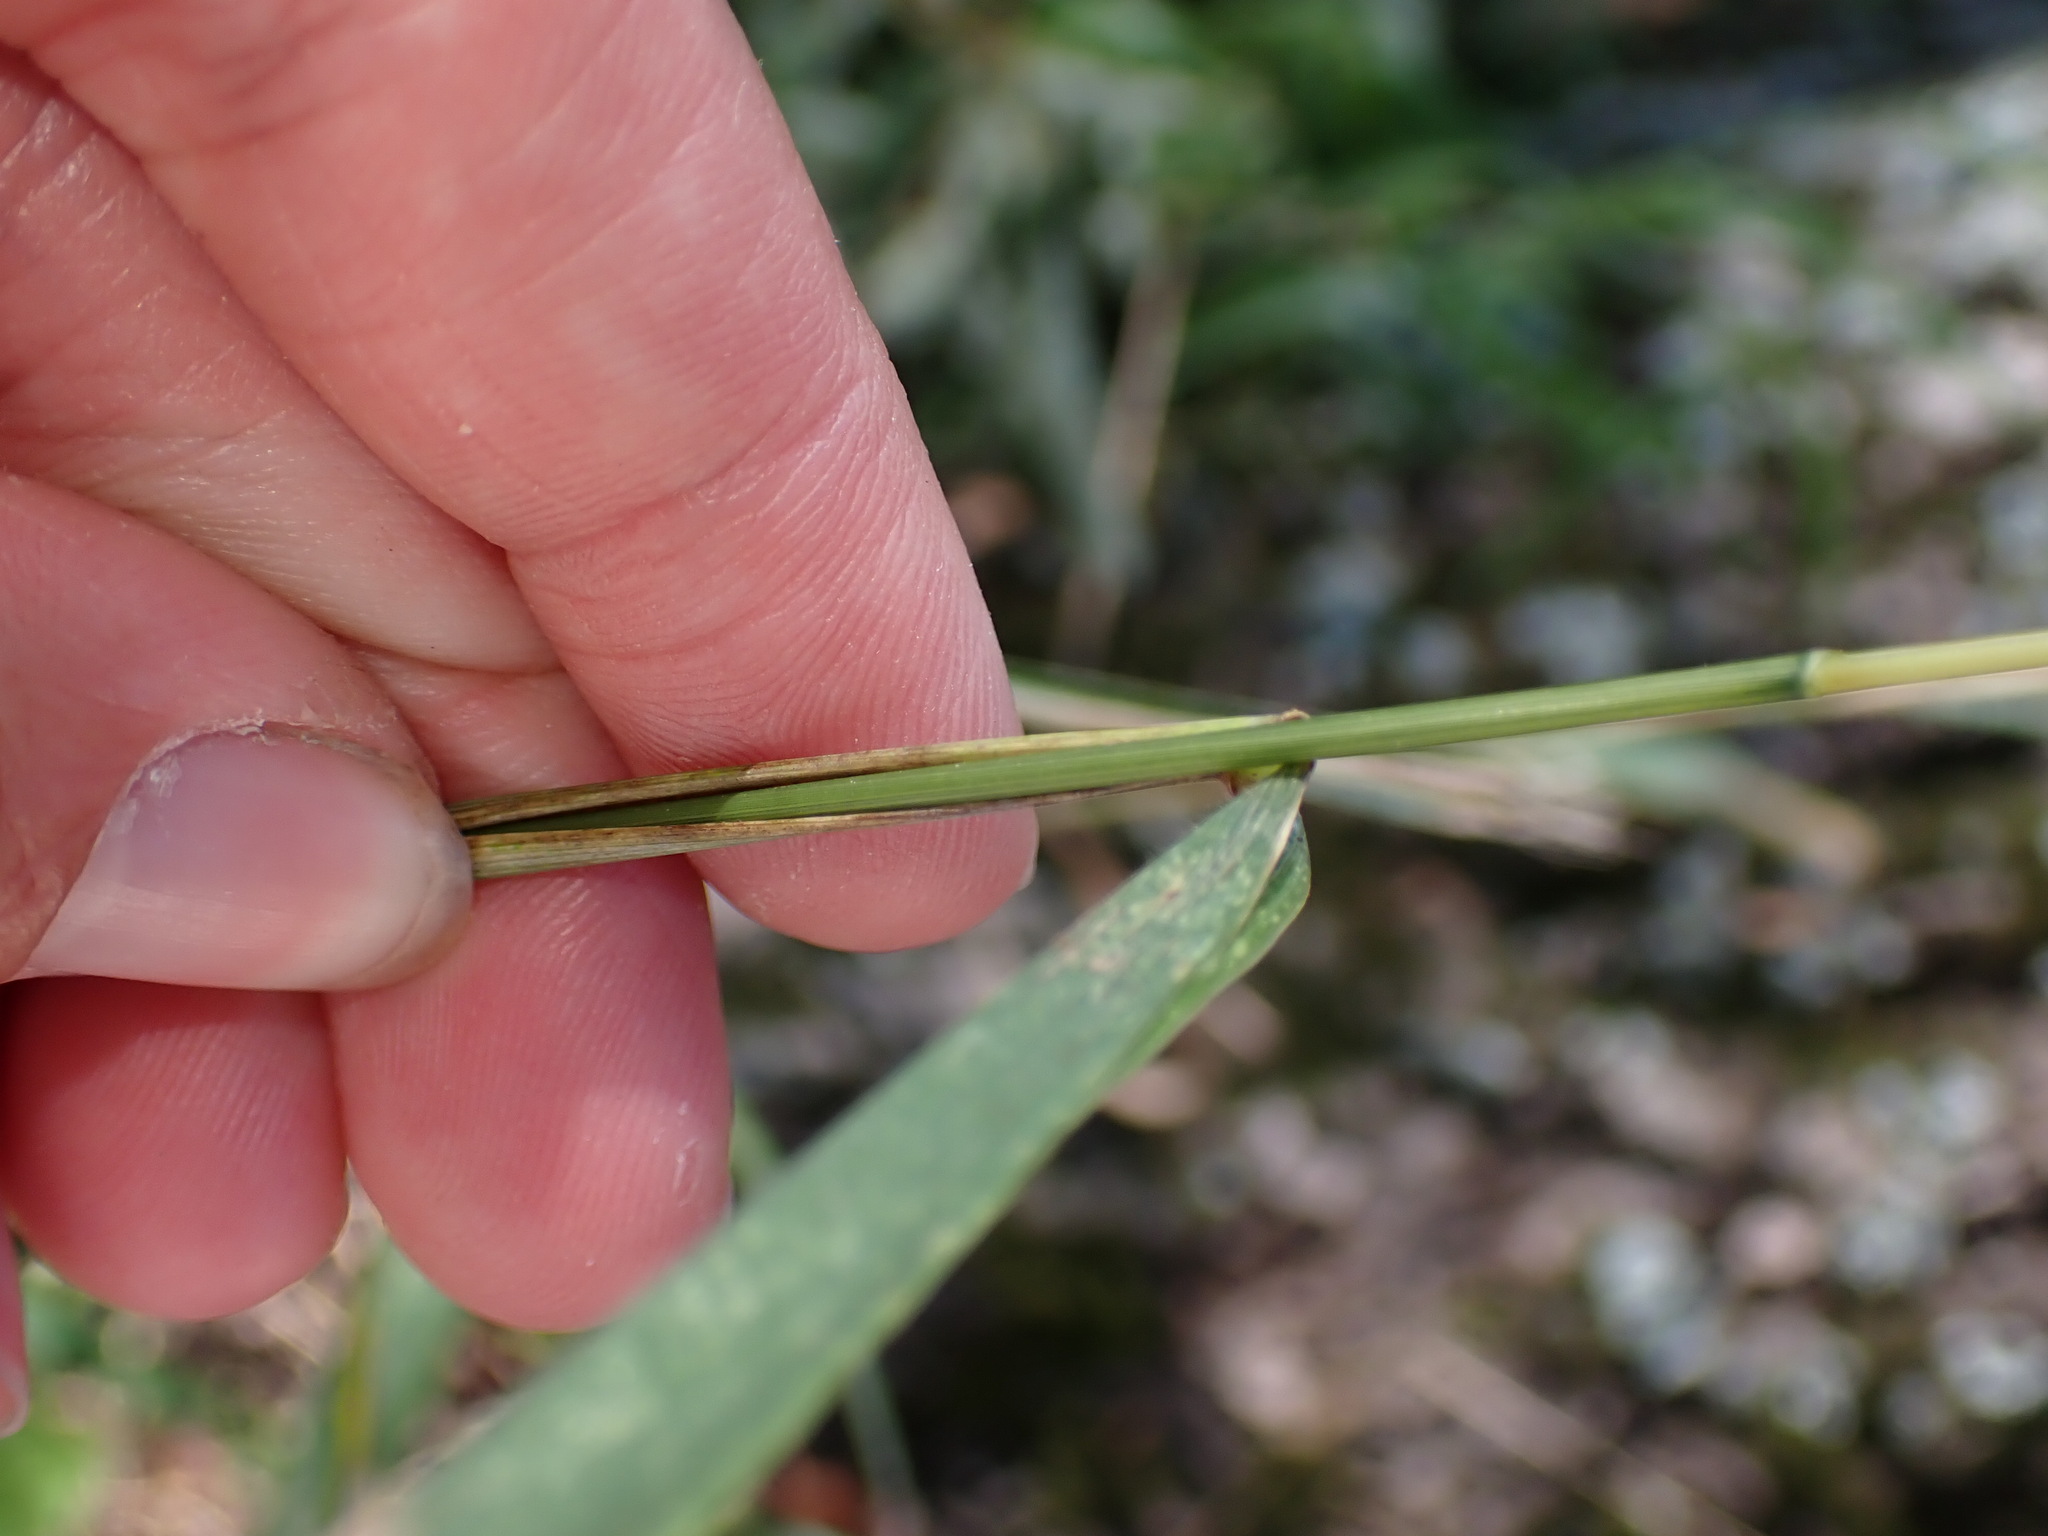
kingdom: Plantae
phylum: Tracheophyta
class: Liliopsida
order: Poales
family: Poaceae
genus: Elymus
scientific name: Elymus hystrix
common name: Bottlebrush grass
